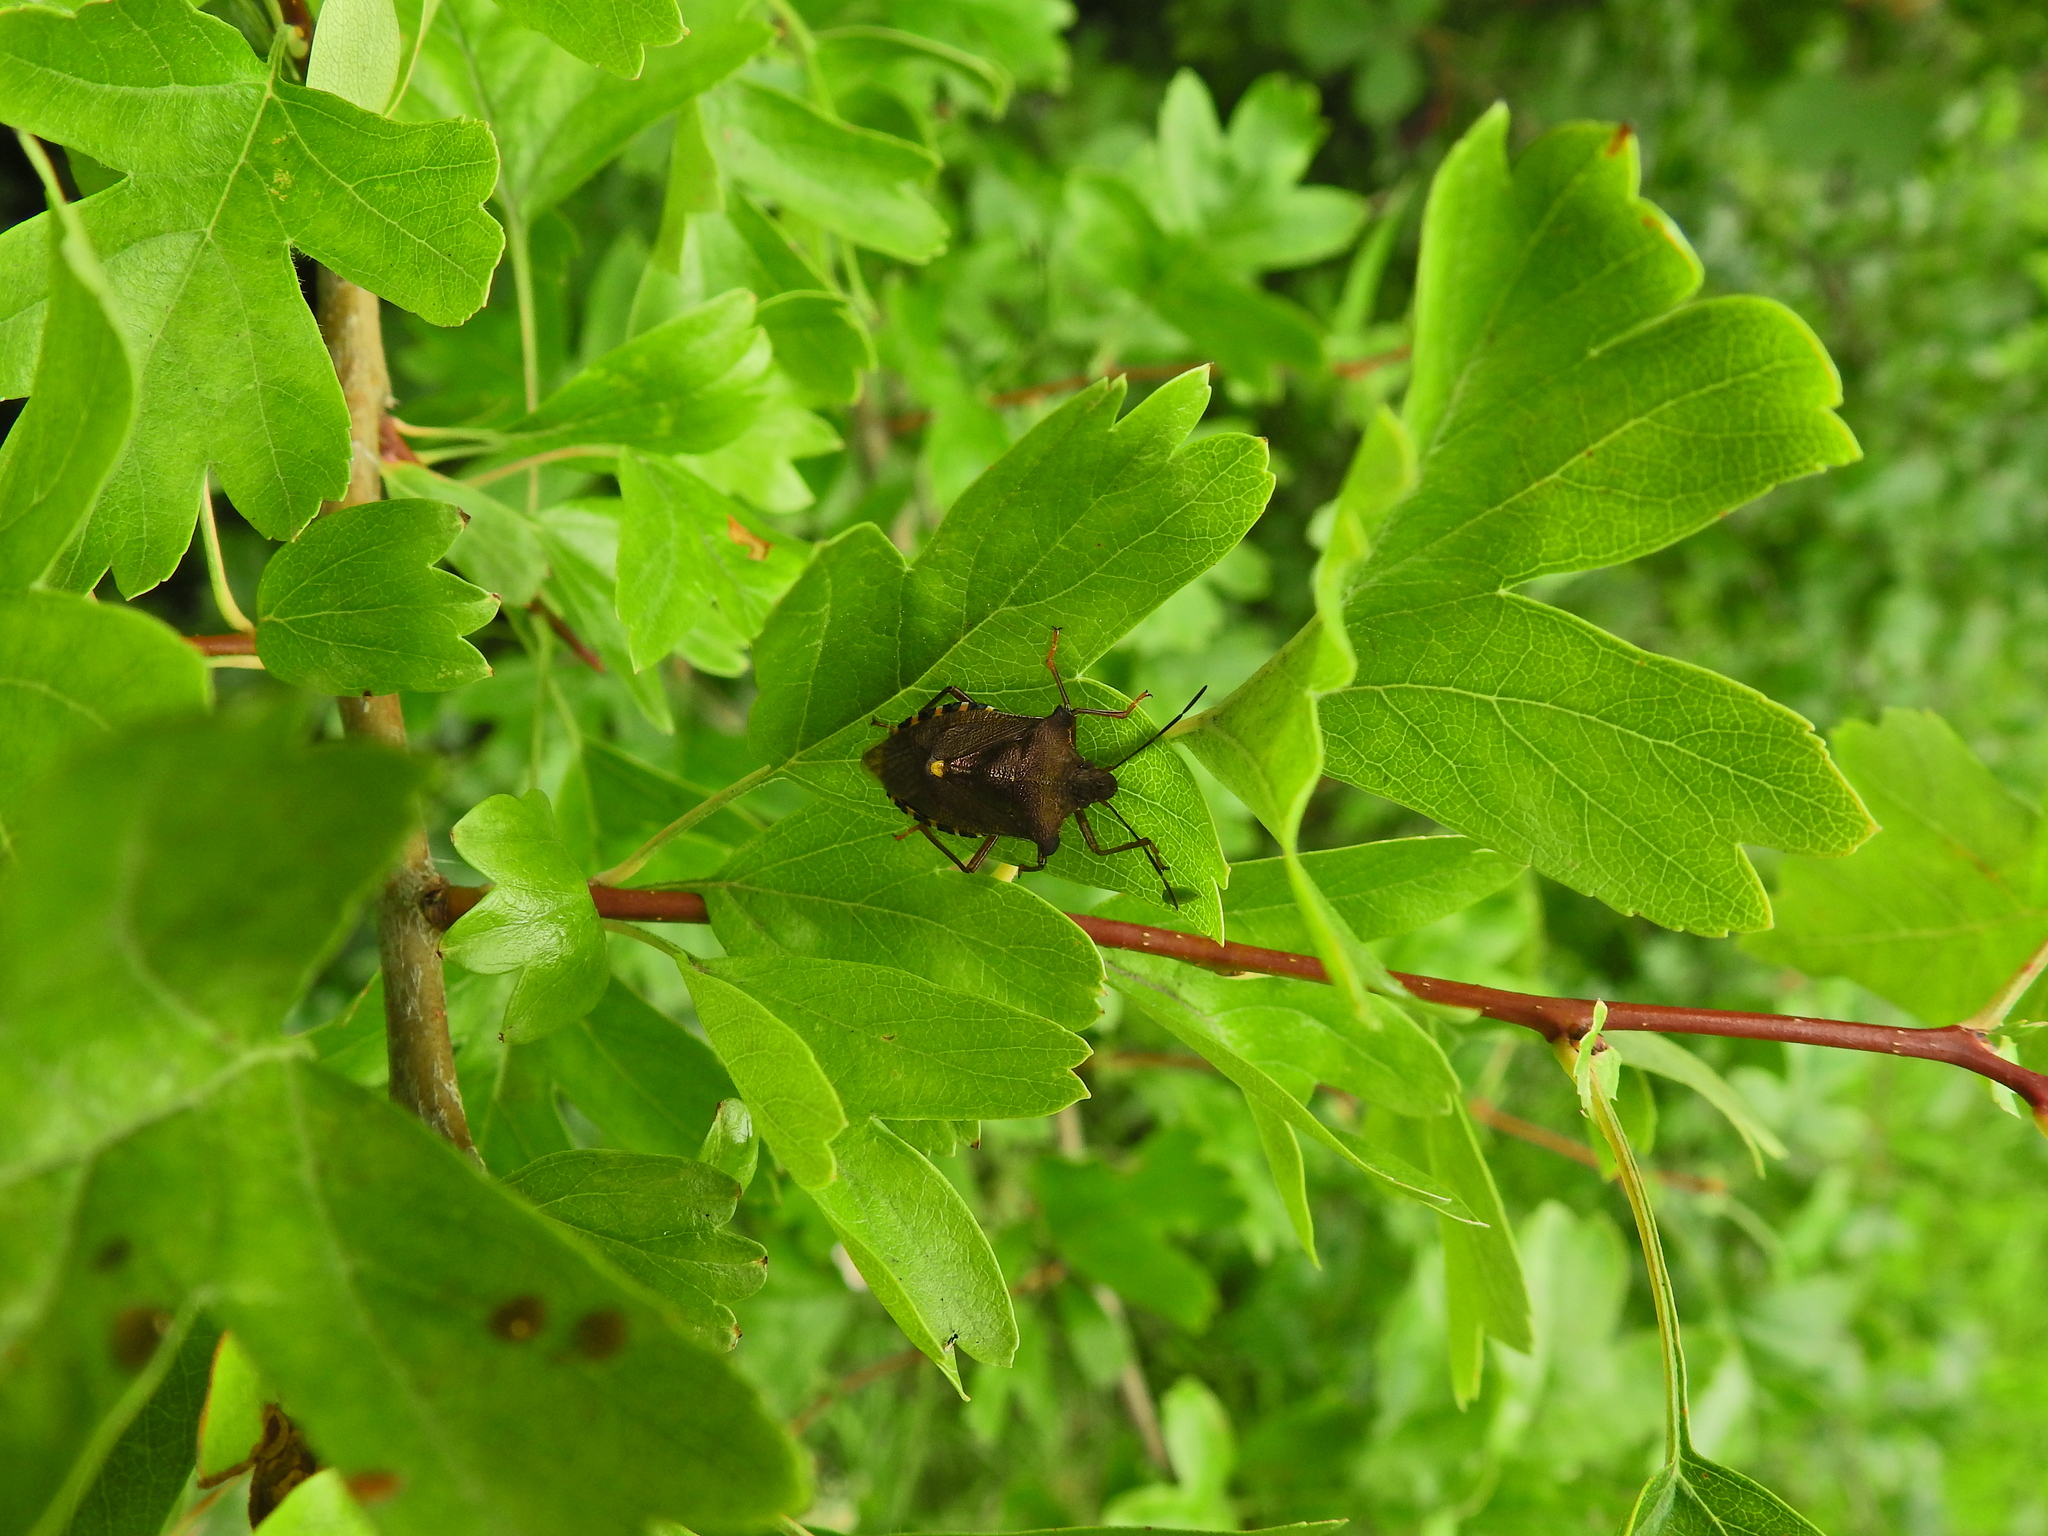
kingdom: Animalia
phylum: Arthropoda
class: Insecta
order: Hemiptera
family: Pentatomidae
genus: Pentatoma
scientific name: Pentatoma rufipes
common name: Forest bug
